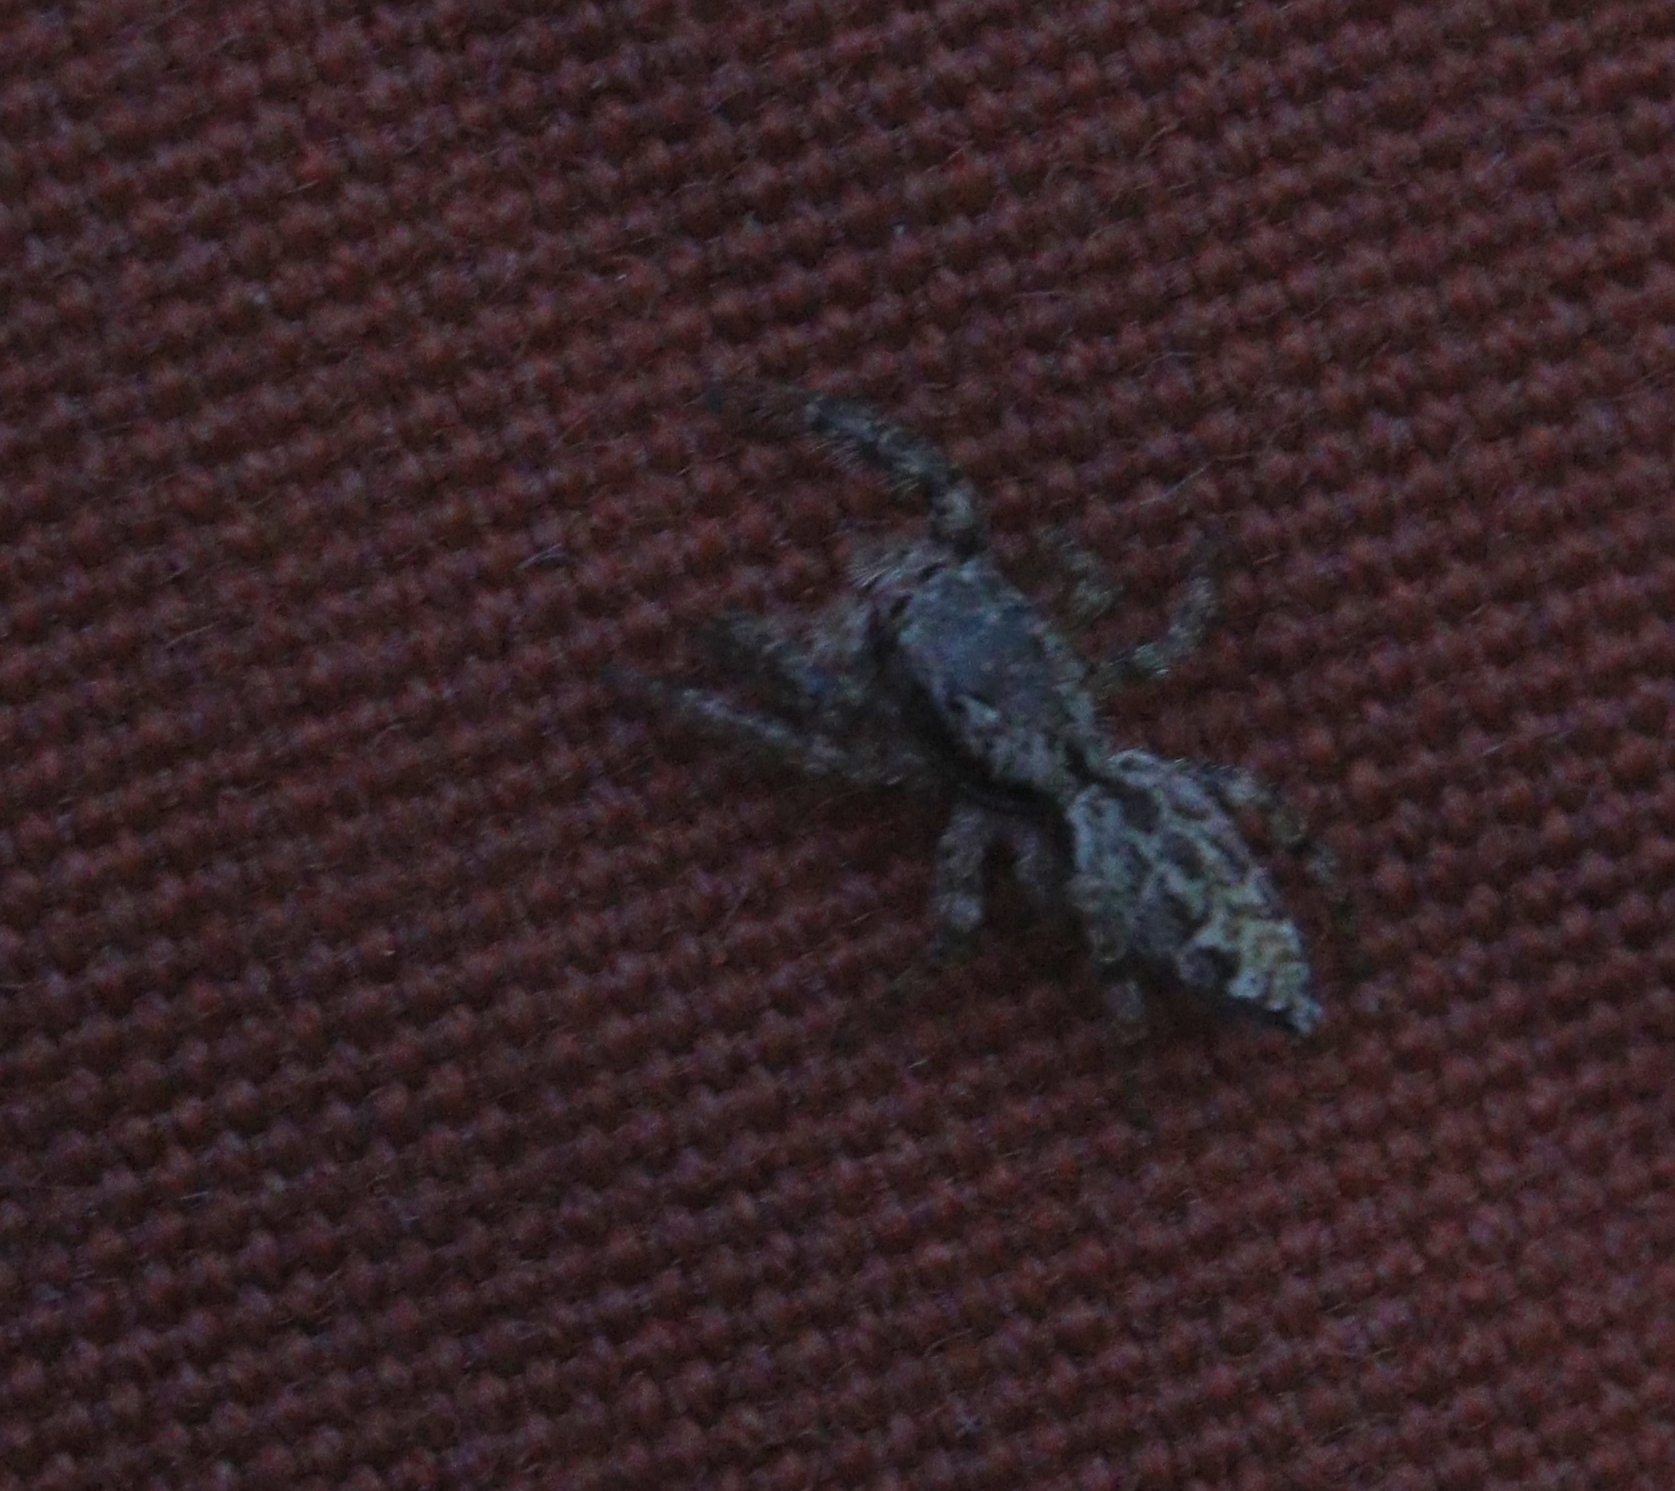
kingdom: Animalia
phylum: Arthropoda
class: Arachnida
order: Araneae
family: Salticidae
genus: Marpissa
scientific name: Marpissa muscosa
